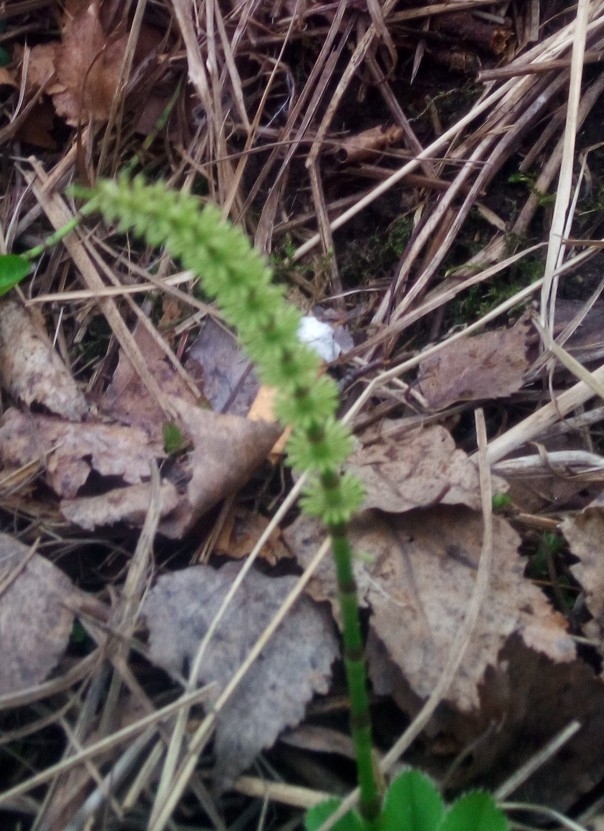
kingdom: Plantae
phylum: Tracheophyta
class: Polypodiopsida
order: Equisetales
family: Equisetaceae
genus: Equisetum
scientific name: Equisetum pratense
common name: Meadow horsetail
